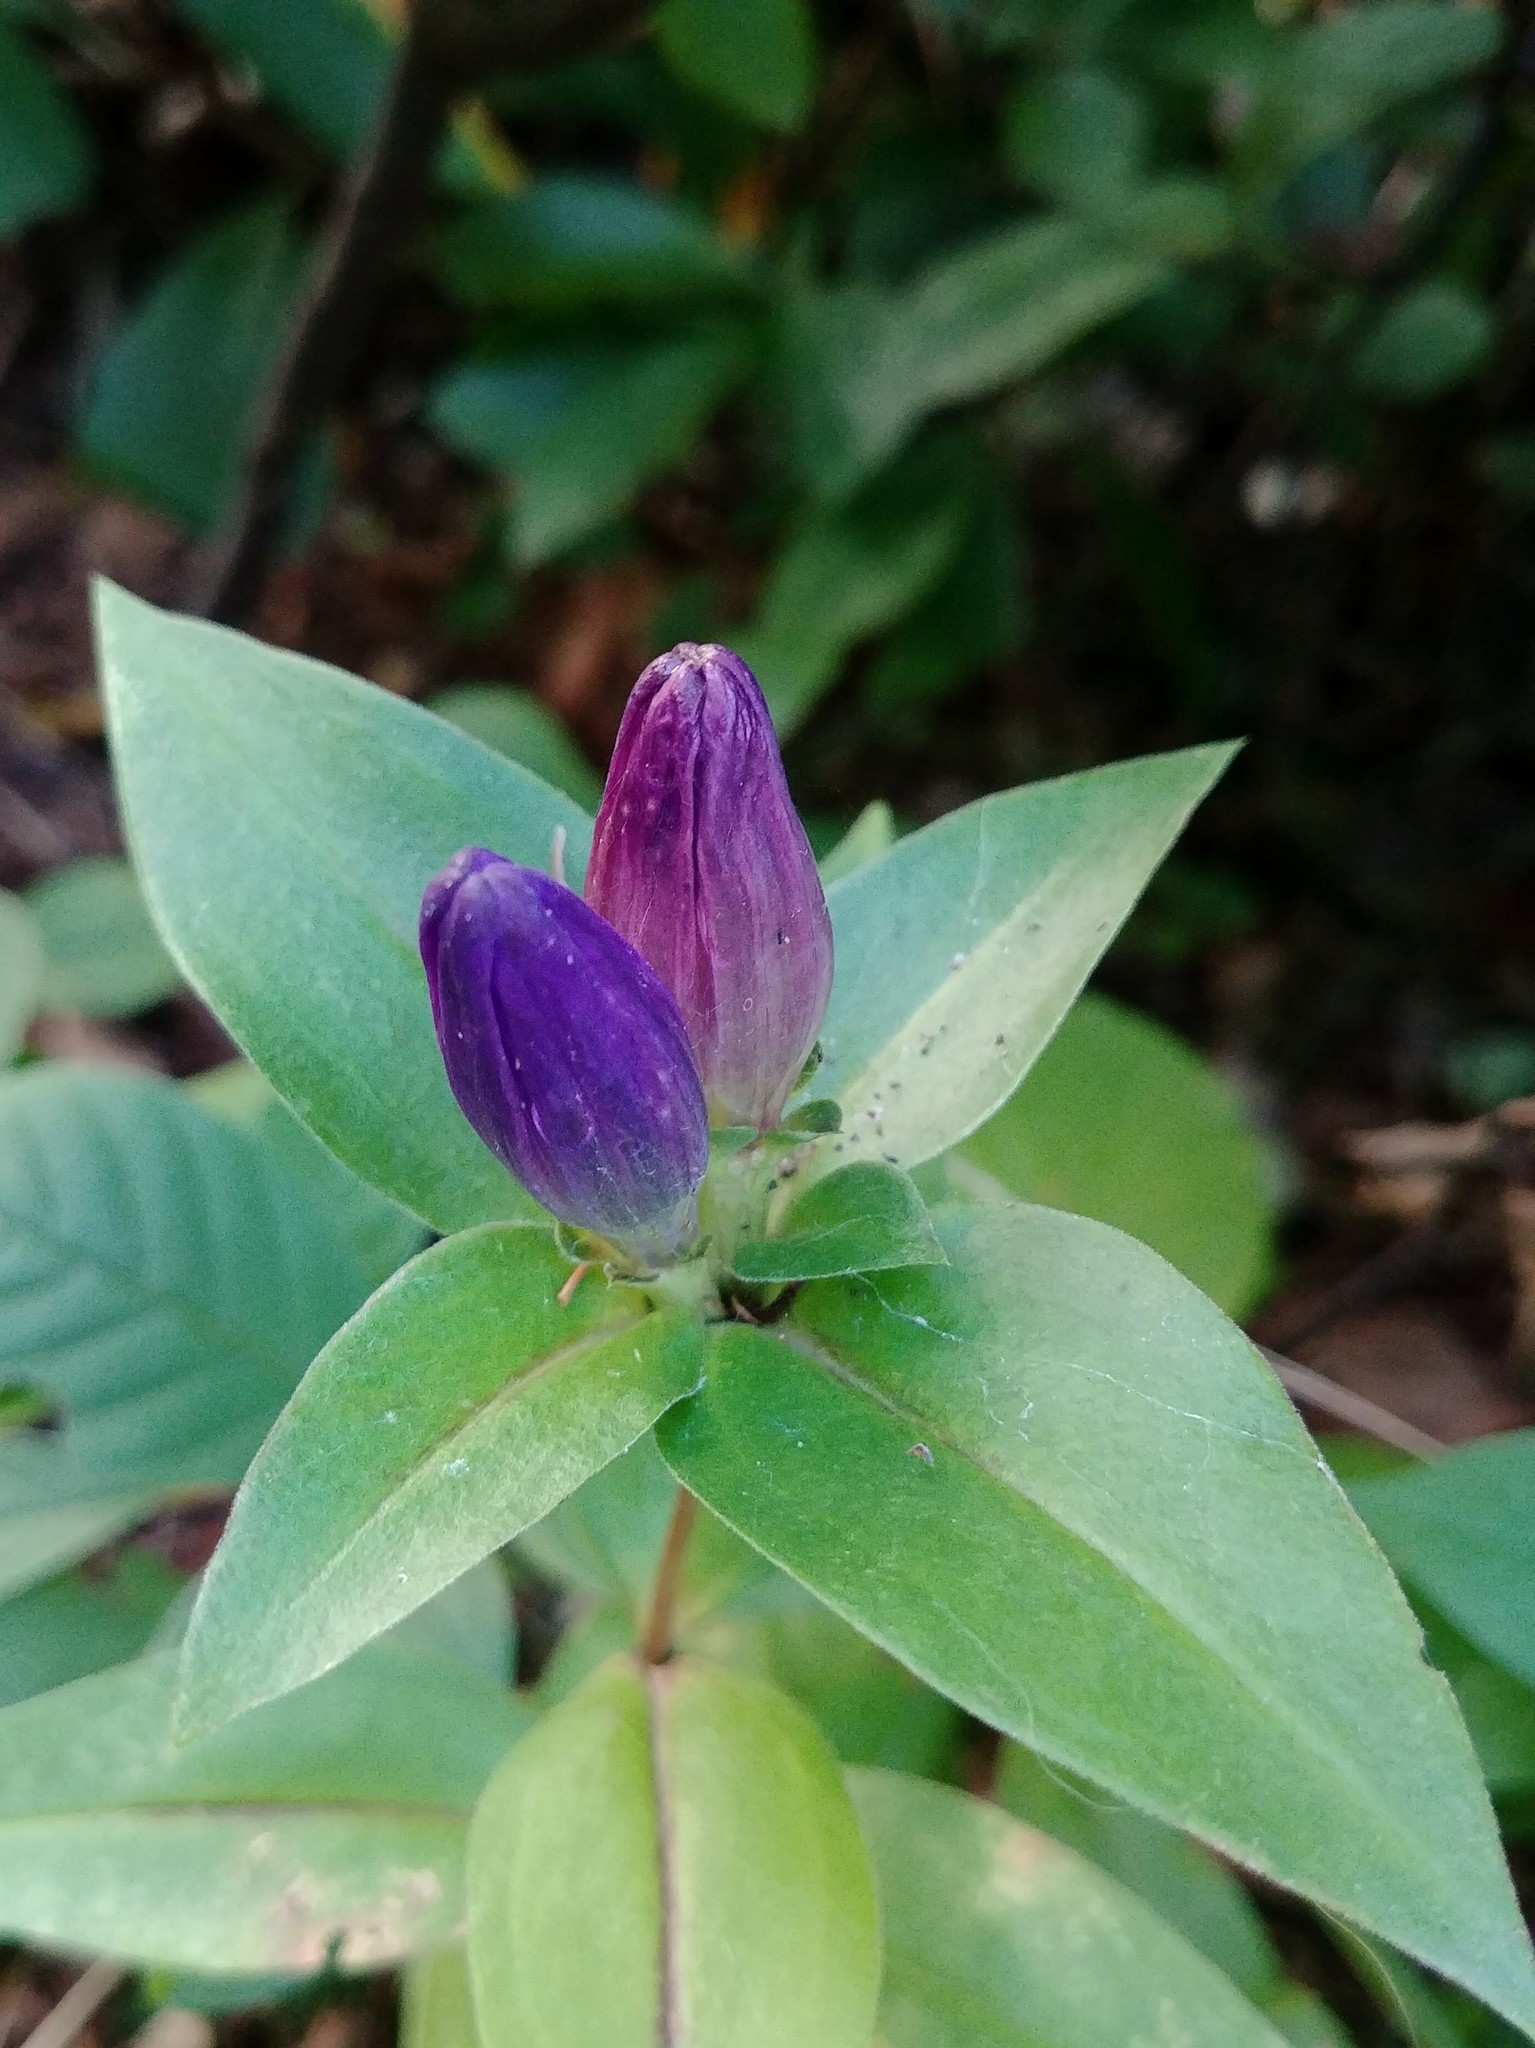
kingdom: Plantae
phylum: Tracheophyta
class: Magnoliopsida
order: Gentianales
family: Gentianaceae
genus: Gentiana
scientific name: Gentiana clausa
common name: Blind gentian
